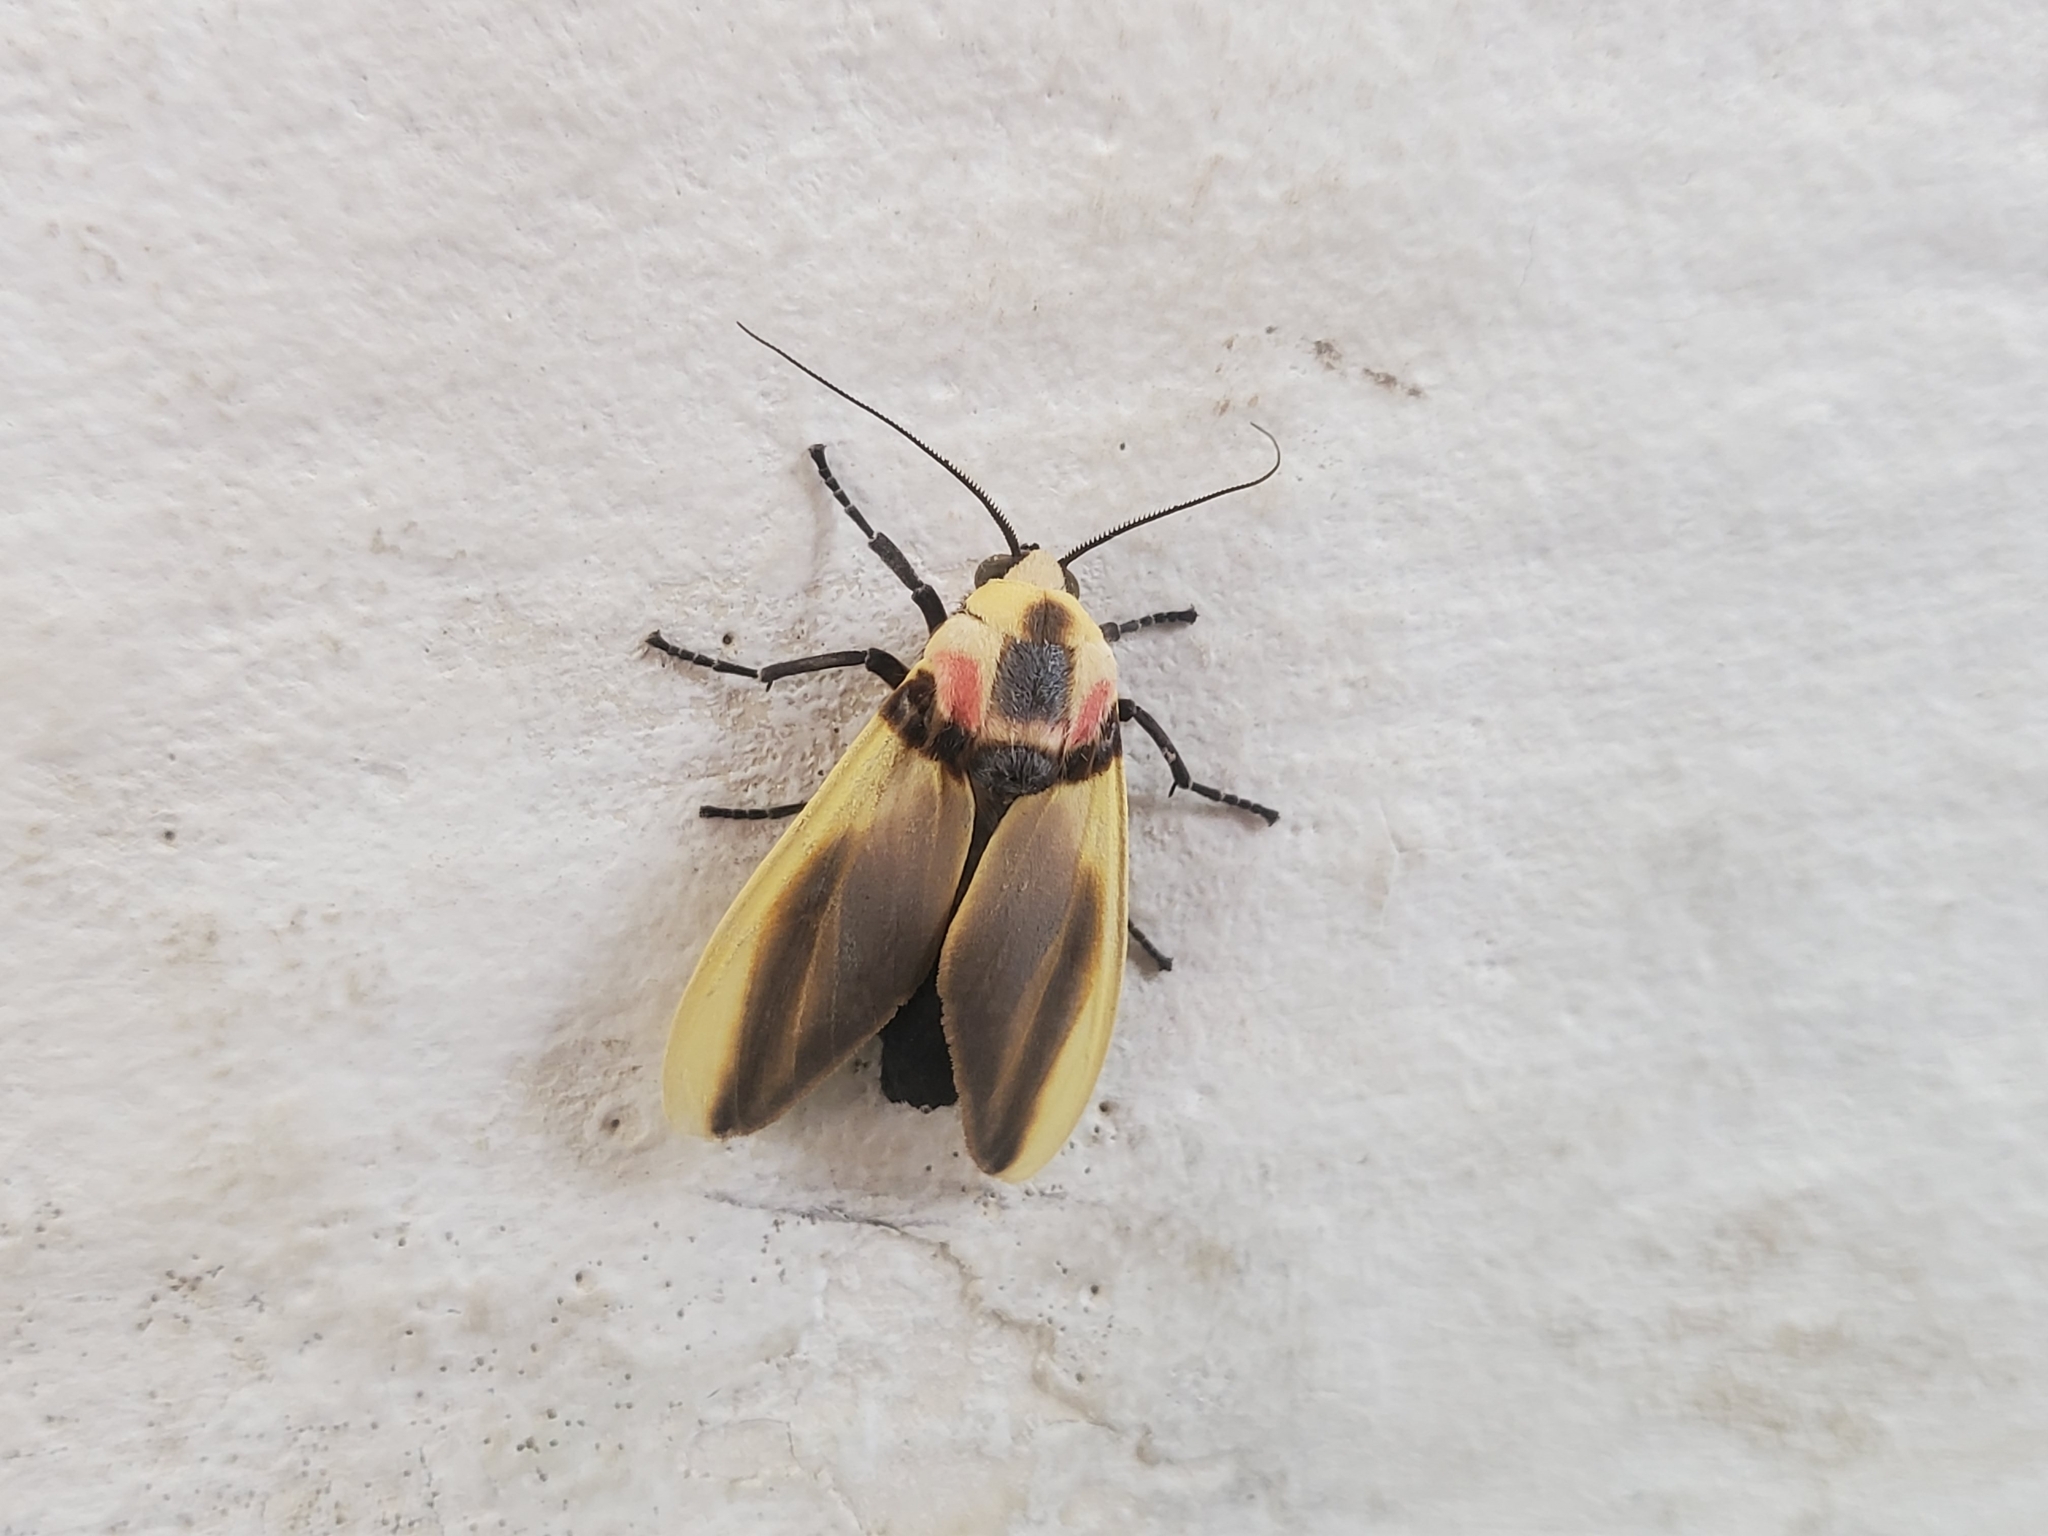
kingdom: Animalia
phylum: Arthropoda
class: Insecta
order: Lepidoptera
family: Erebidae
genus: Cratoplastis
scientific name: Cratoplastis diluta
